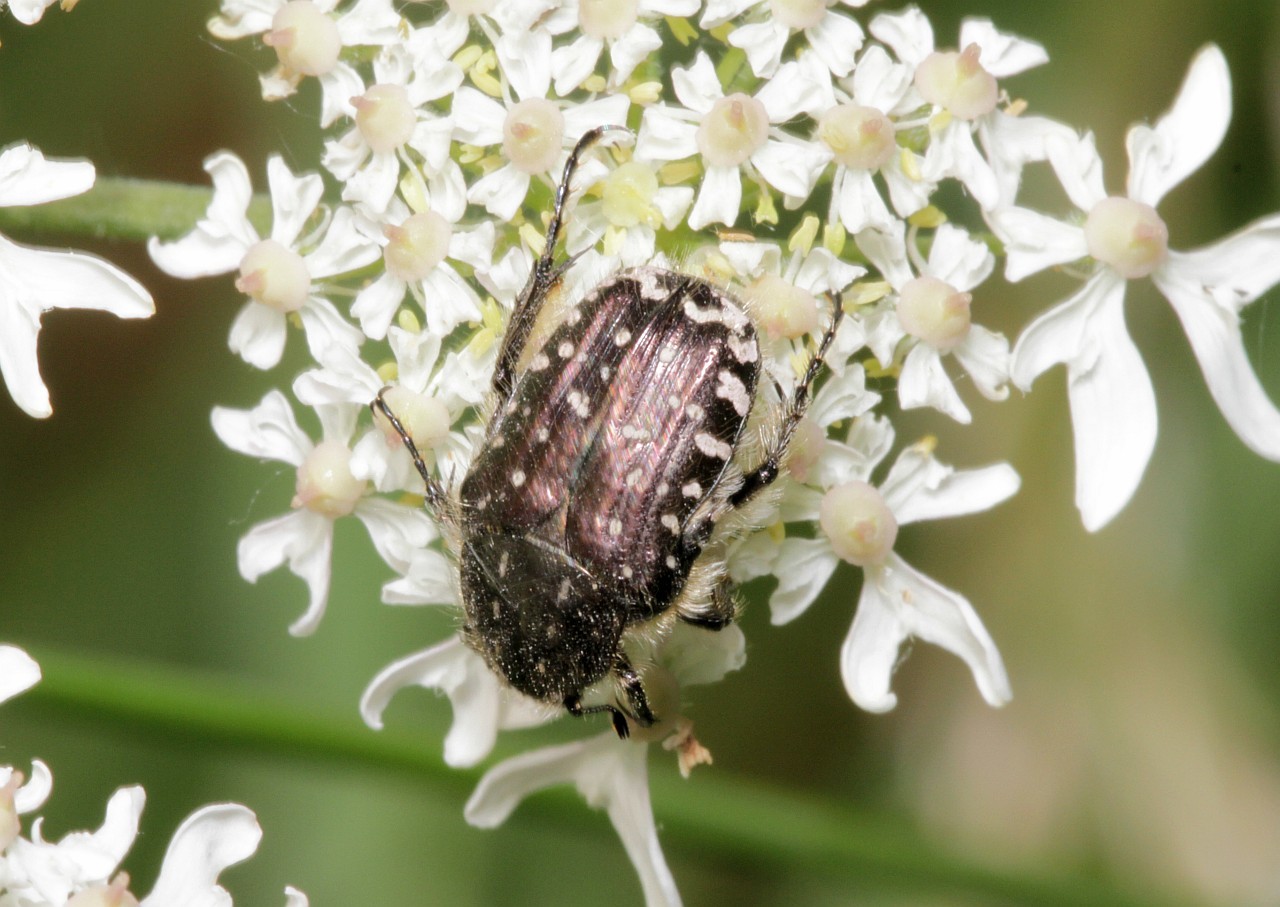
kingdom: Animalia
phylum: Arthropoda
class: Insecta
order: Coleoptera
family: Scarabaeidae
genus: Oxythyrea
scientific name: Oxythyrea funesta
